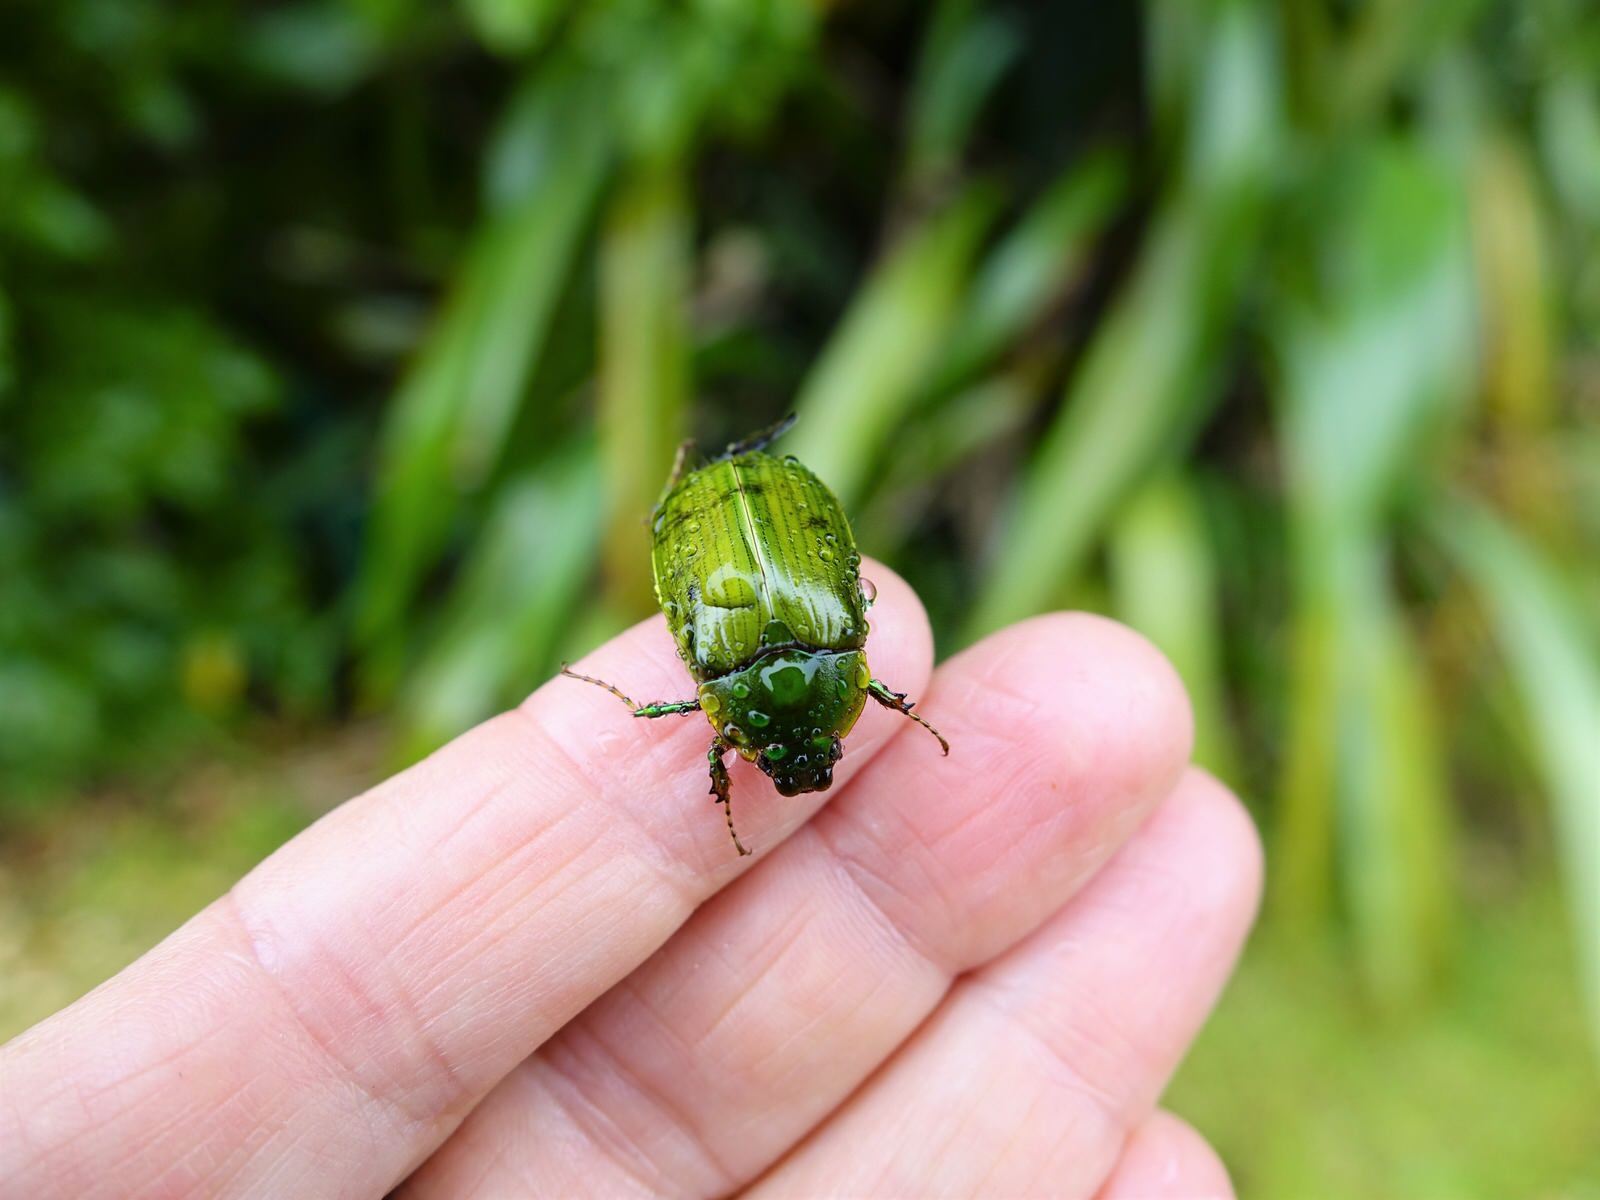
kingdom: Animalia
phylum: Arthropoda
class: Insecta
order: Coleoptera
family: Scarabaeidae
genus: Stethaspis
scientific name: Stethaspis longicornis
